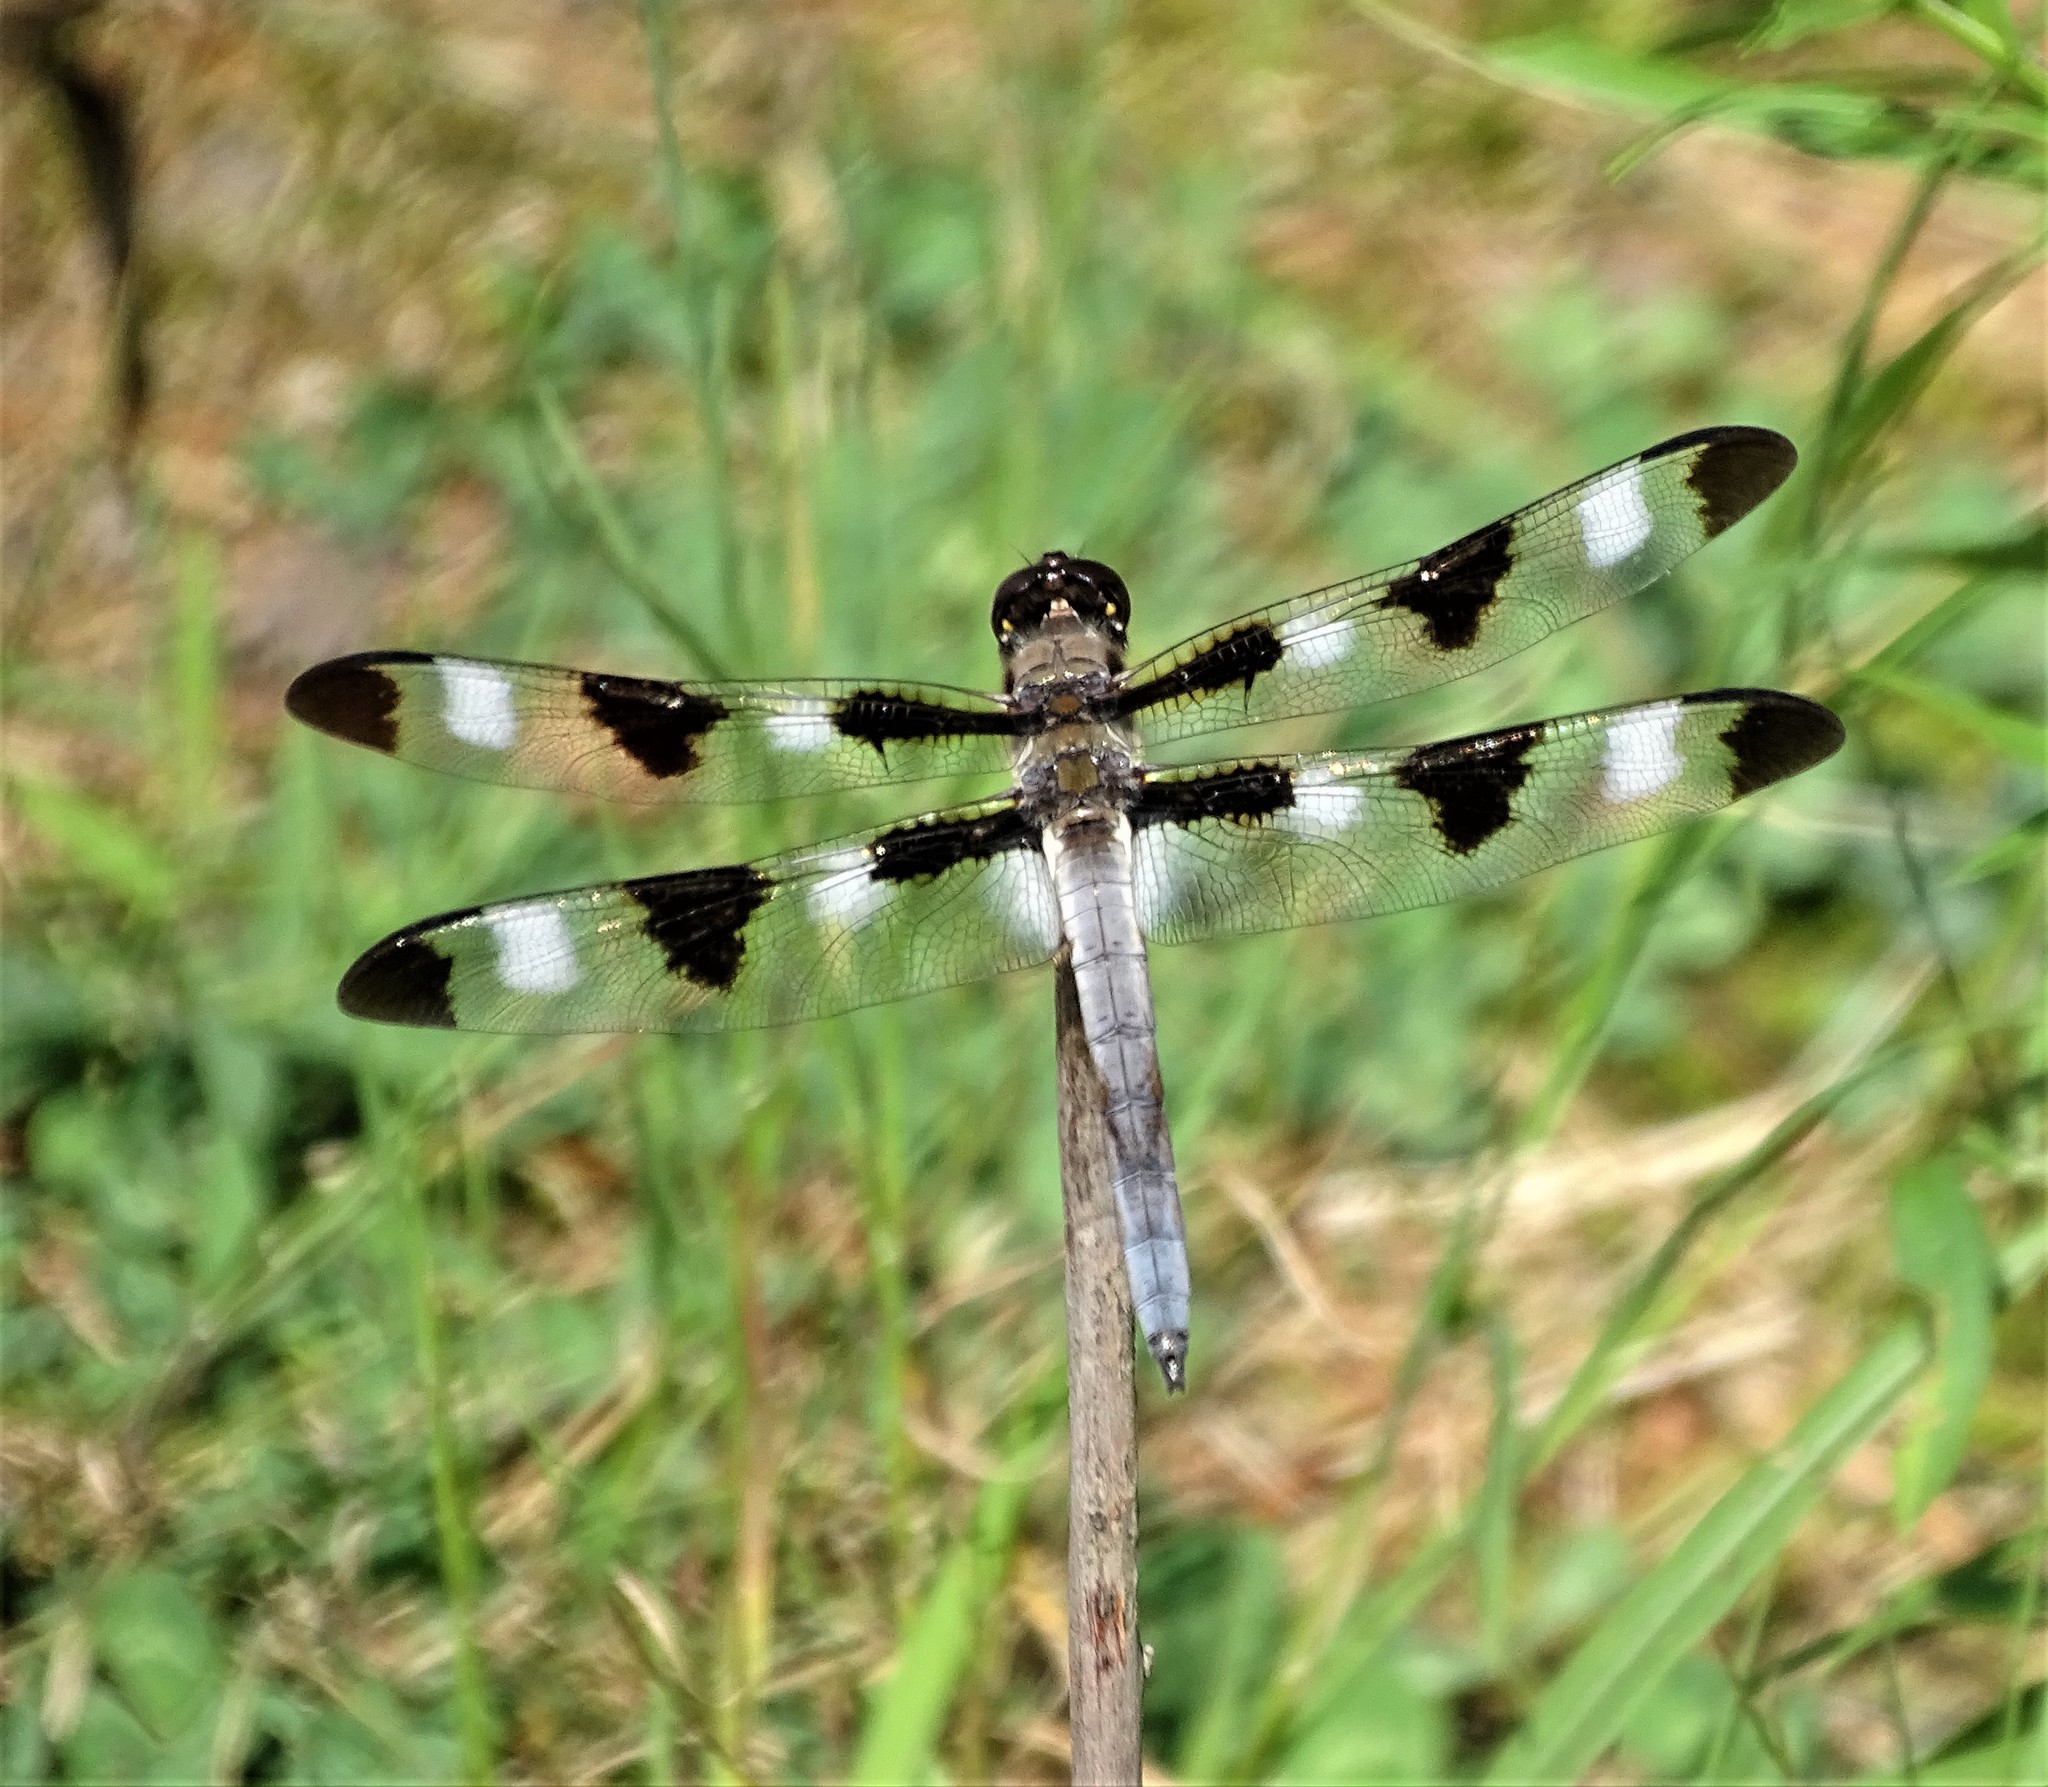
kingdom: Animalia
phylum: Arthropoda
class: Insecta
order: Odonata
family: Libellulidae
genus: Libellula
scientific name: Libellula pulchella
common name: Twelve-spotted skimmer
